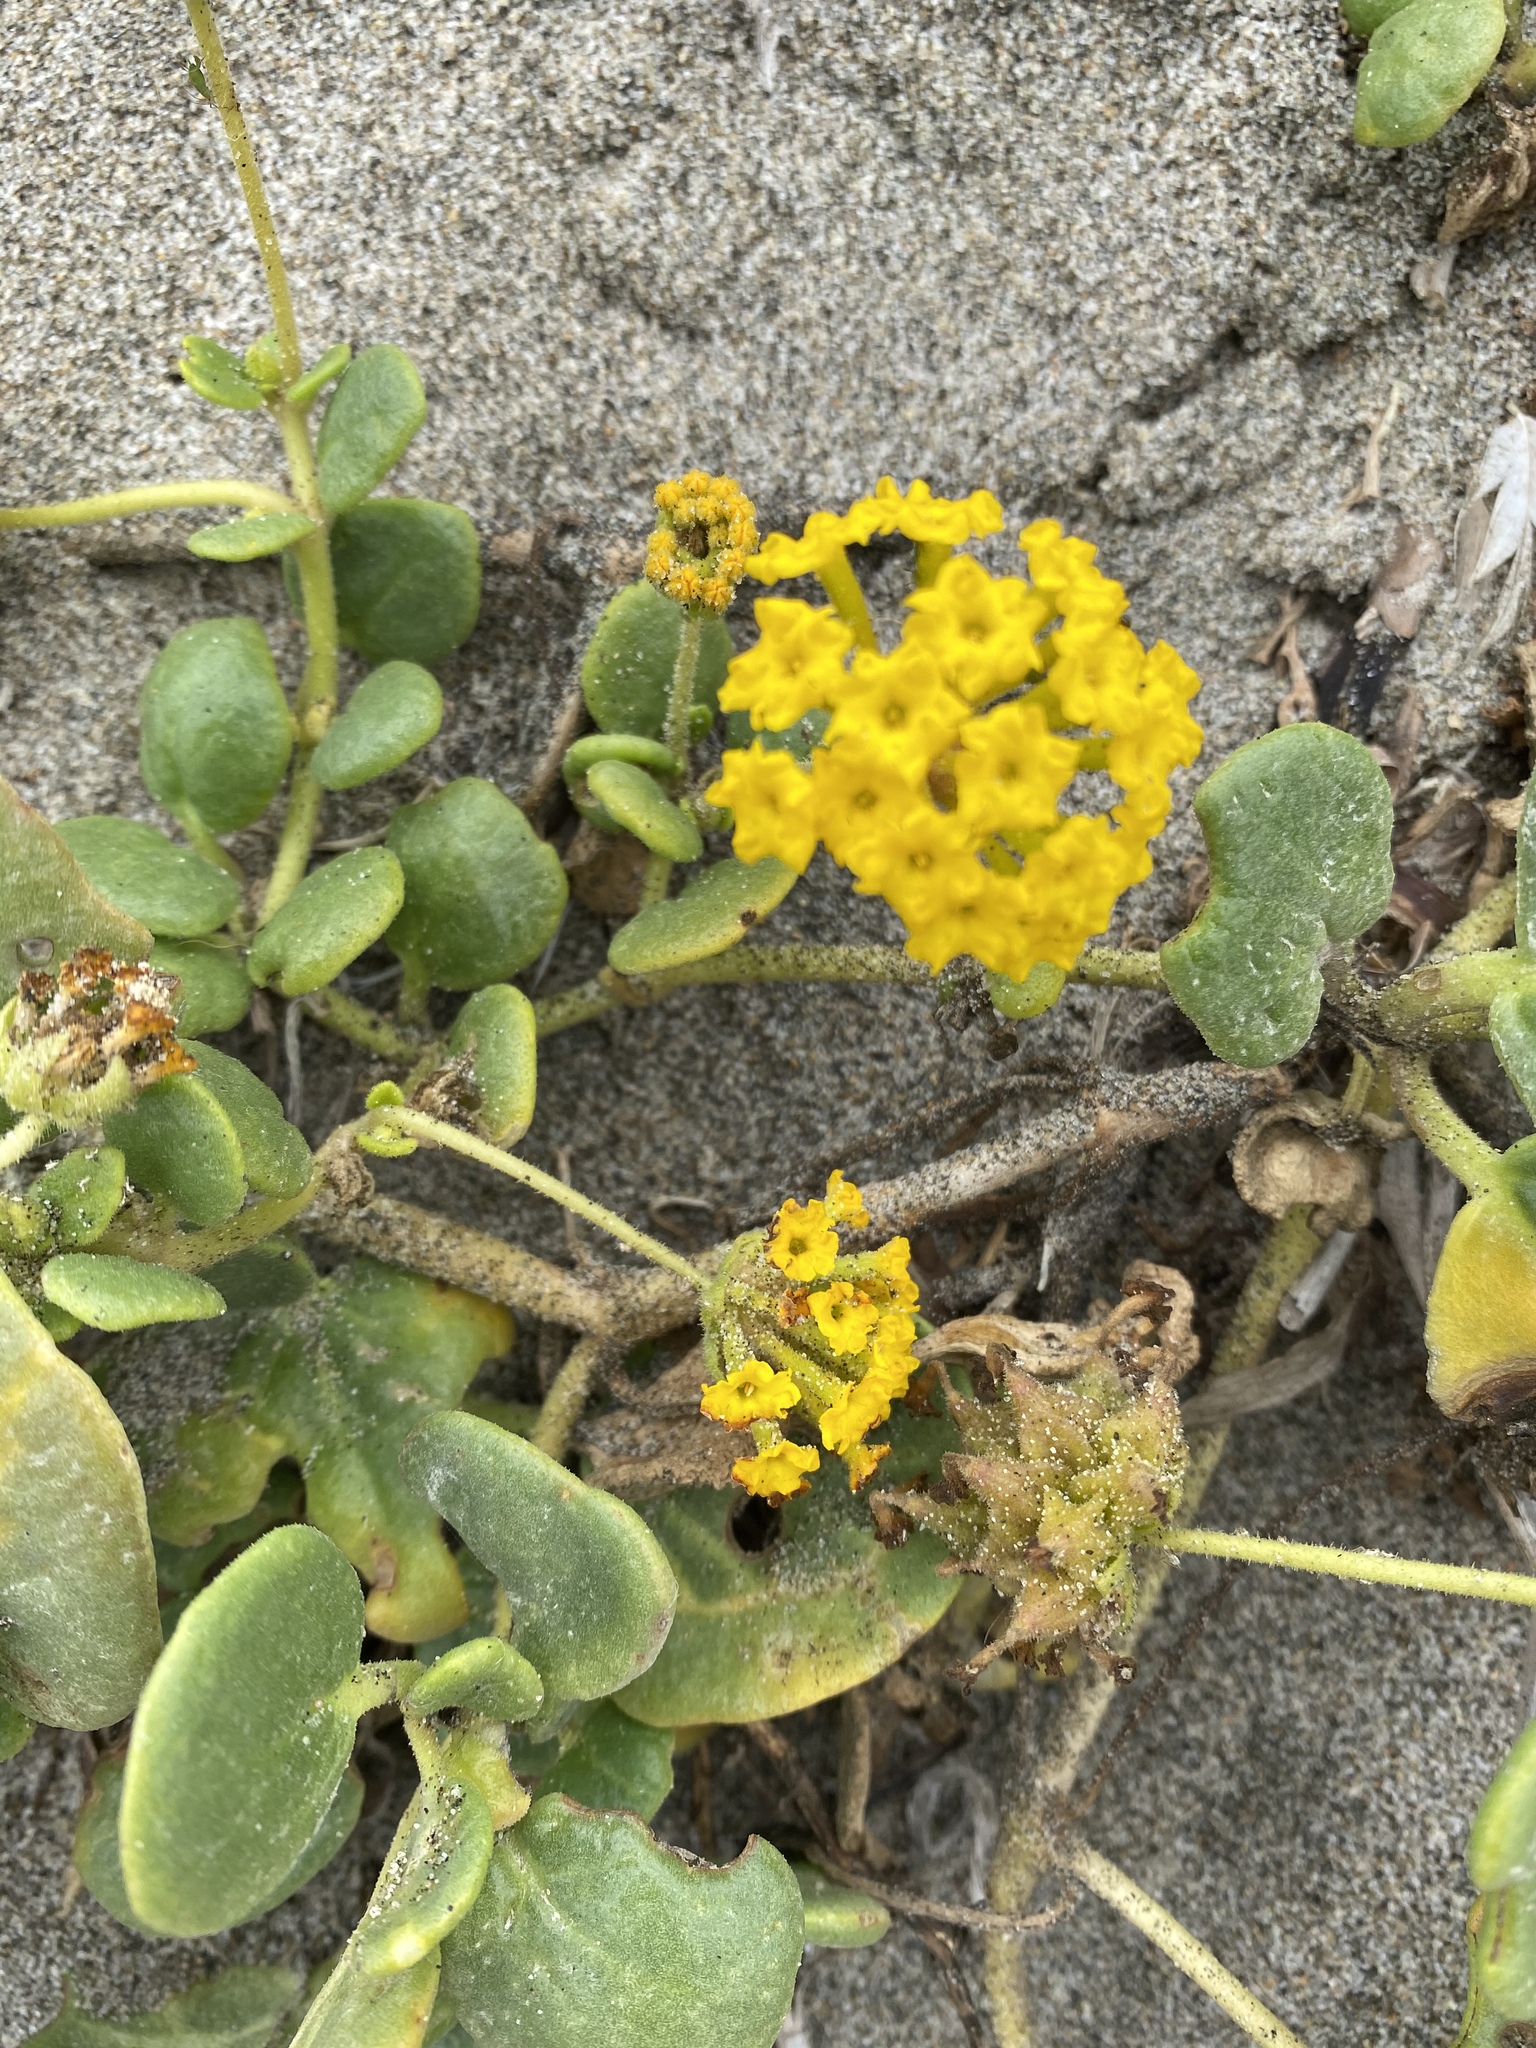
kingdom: Plantae
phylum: Tracheophyta
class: Magnoliopsida
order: Caryophyllales
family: Nyctaginaceae
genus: Abronia
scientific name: Abronia latifolia
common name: Yellow sand-verbena
